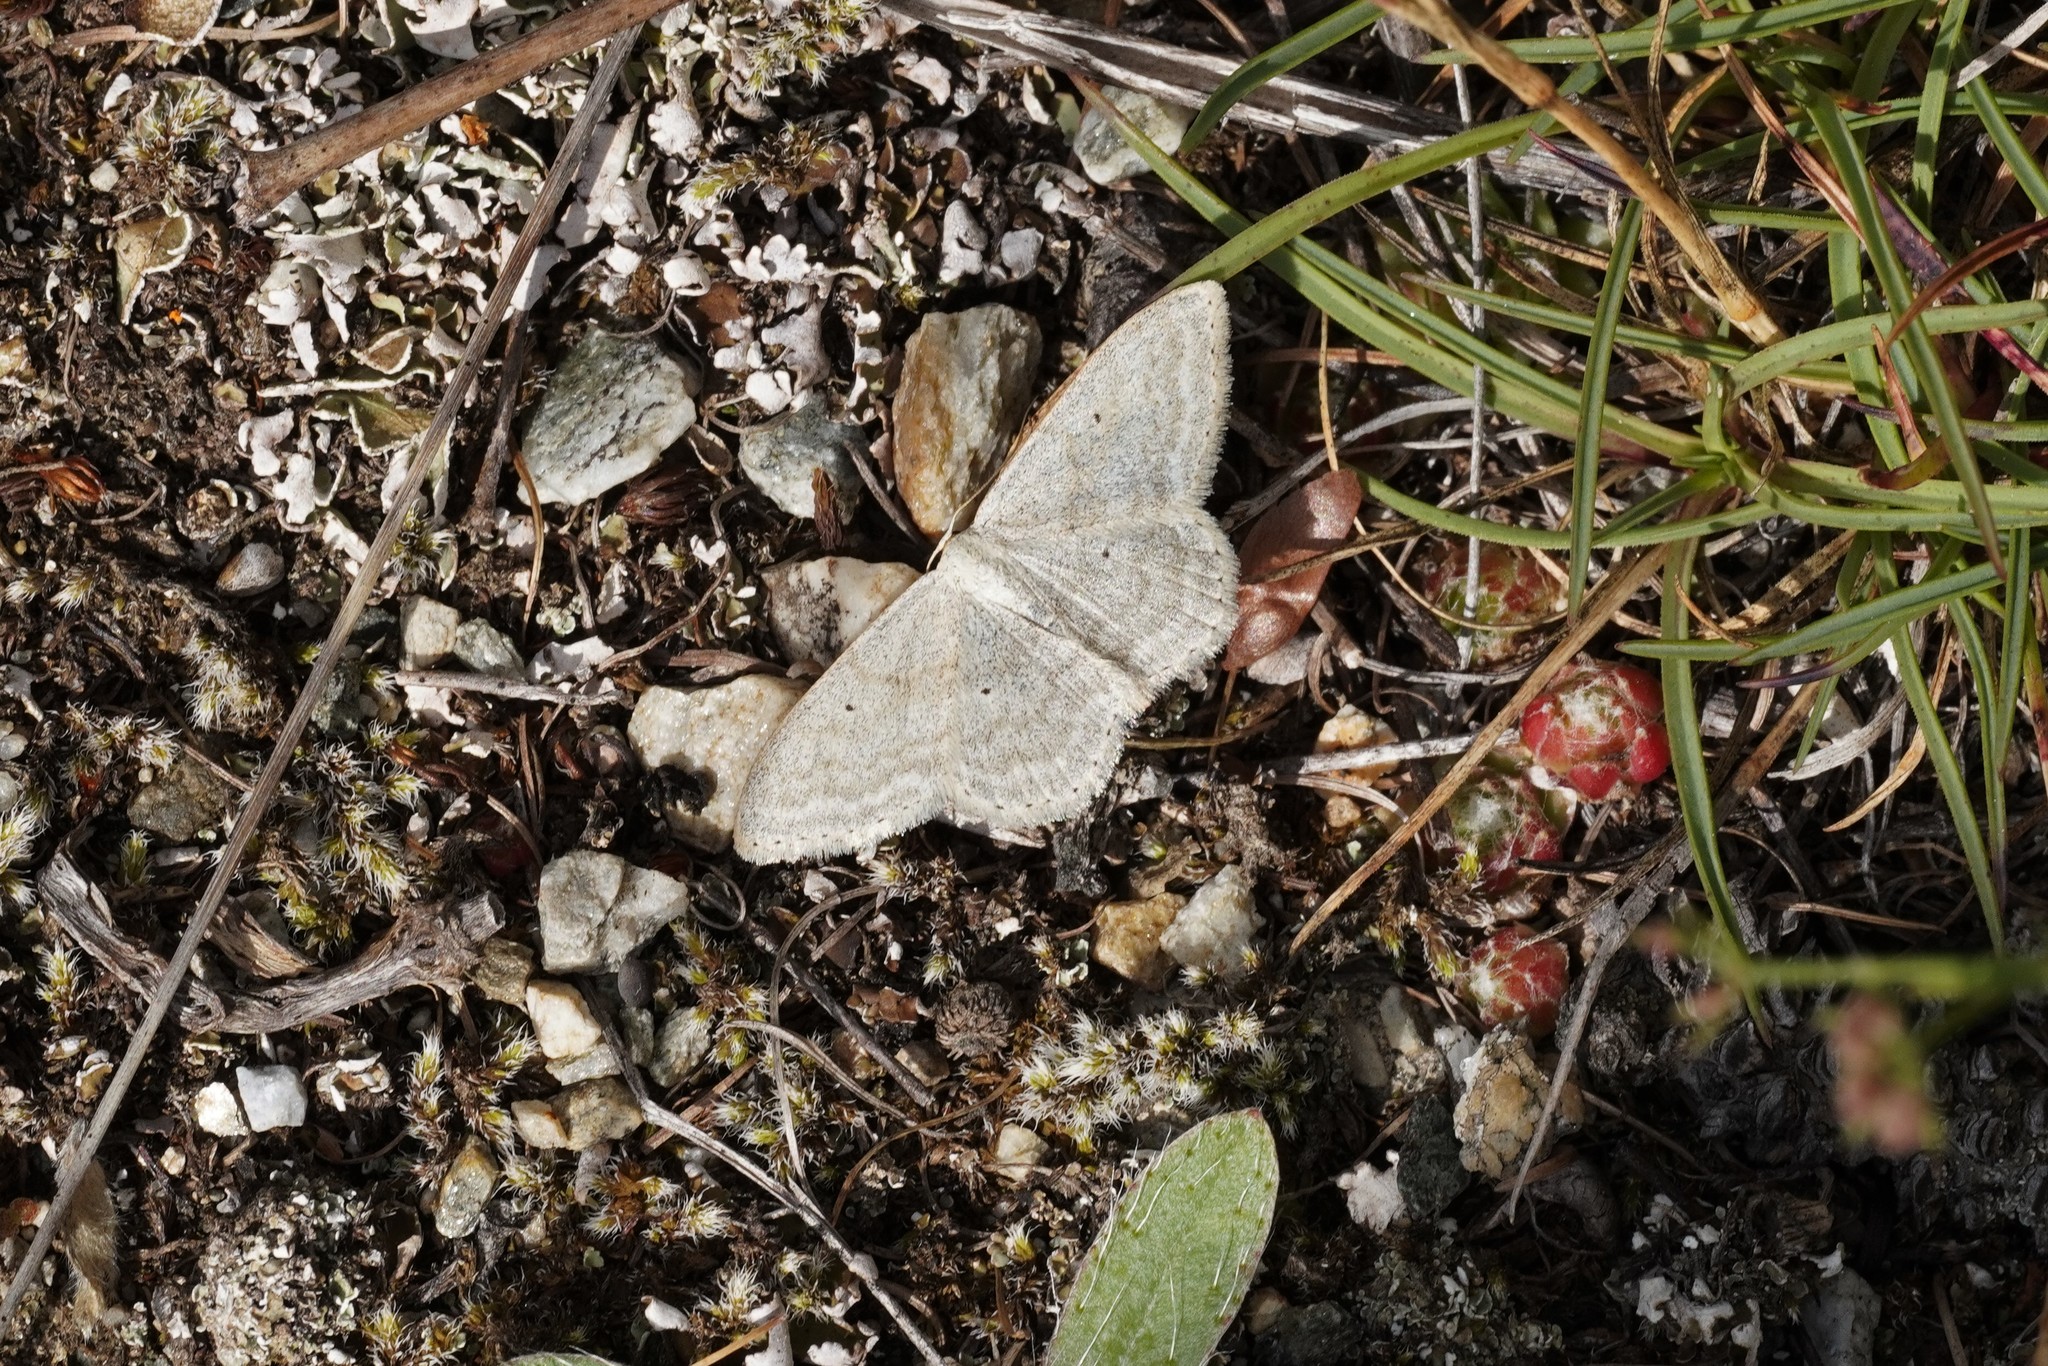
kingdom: Animalia
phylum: Arthropoda
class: Insecta
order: Lepidoptera
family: Geometridae
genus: Scopula
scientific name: Scopula incanata
